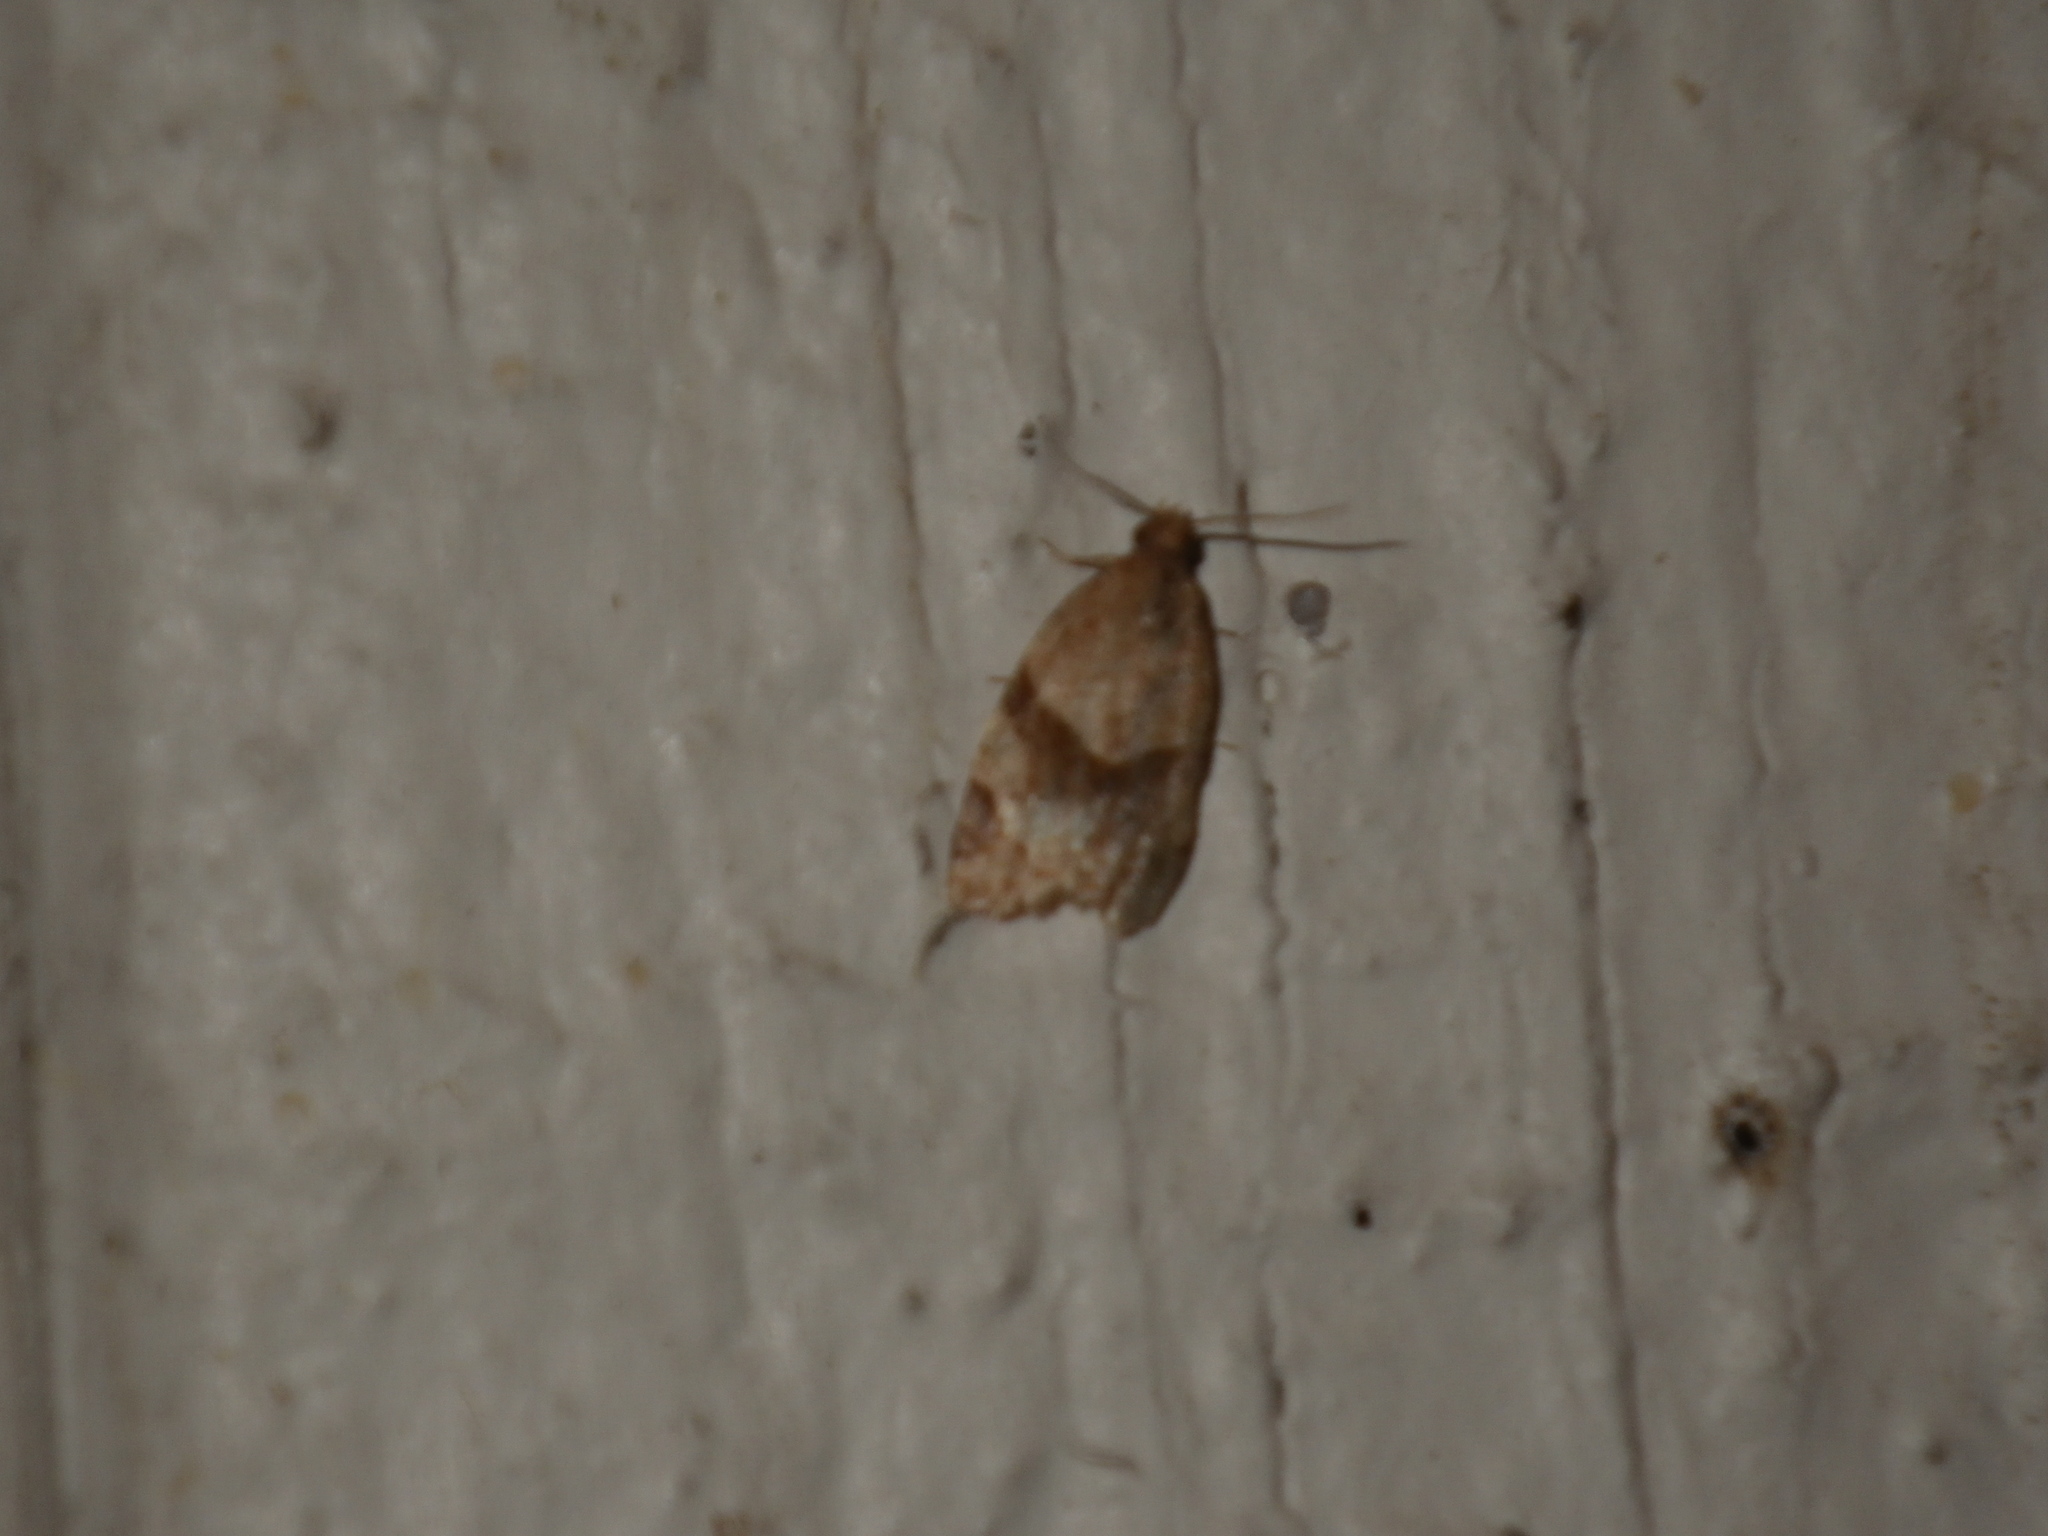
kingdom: Animalia
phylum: Arthropoda
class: Insecta
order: Lepidoptera
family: Tortricidae
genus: Clepsis
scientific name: Clepsis peritana
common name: Garden tortrix
